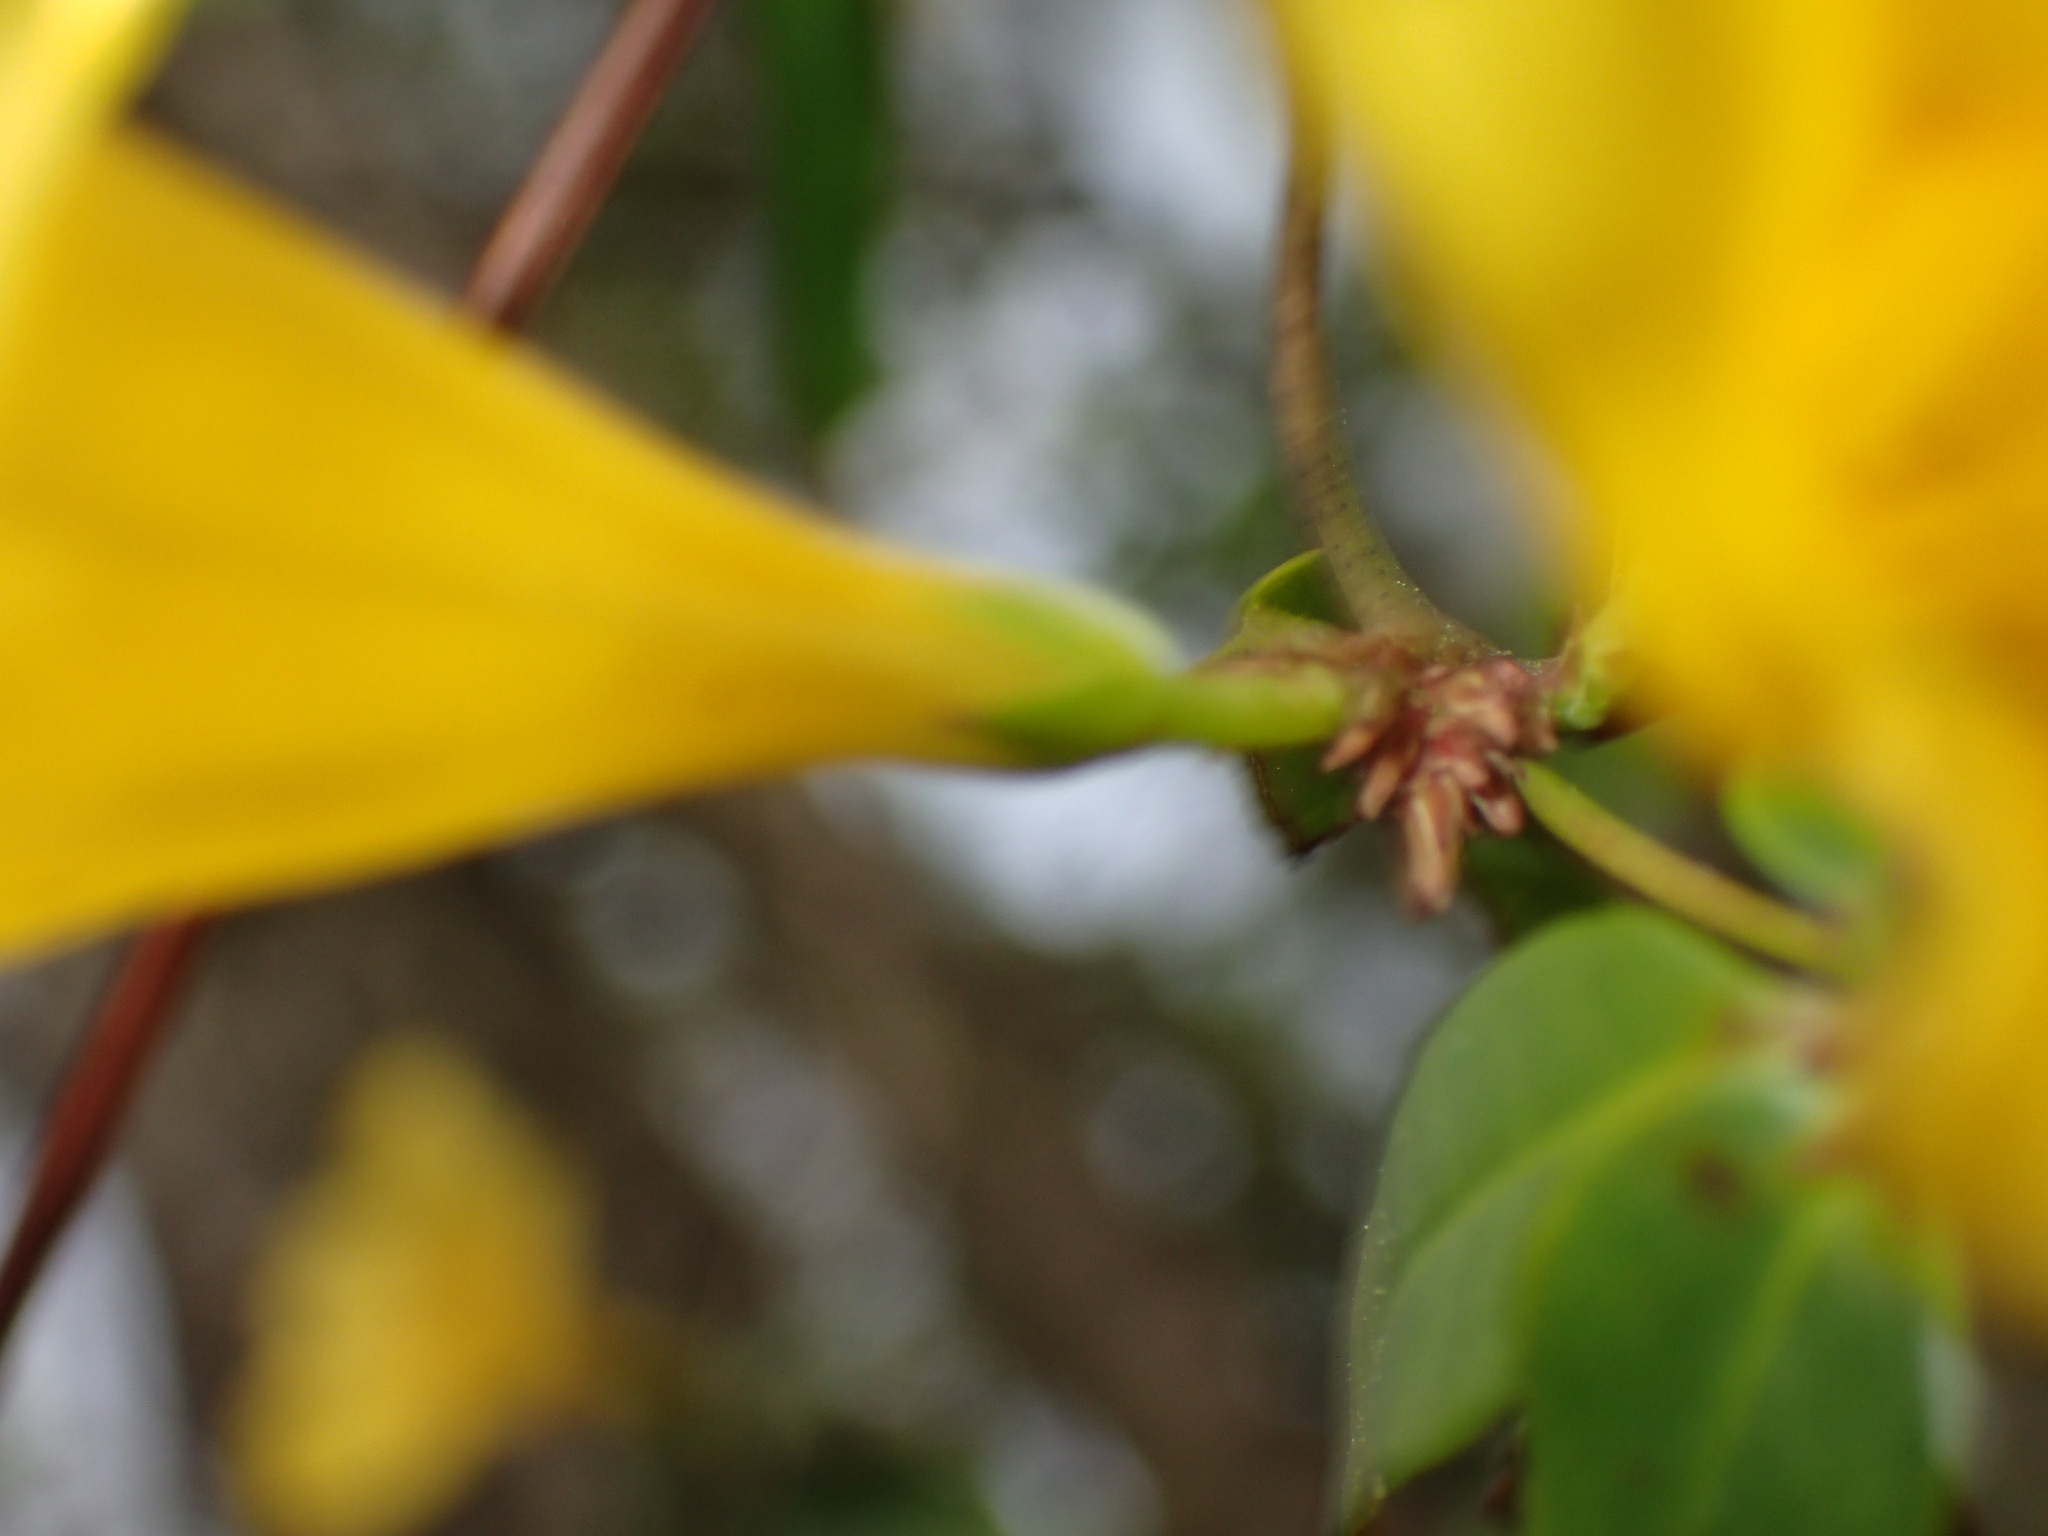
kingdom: Plantae
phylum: Tracheophyta
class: Magnoliopsida
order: Gentianales
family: Gelsemiaceae
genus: Gelsemium
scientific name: Gelsemium rankinii
